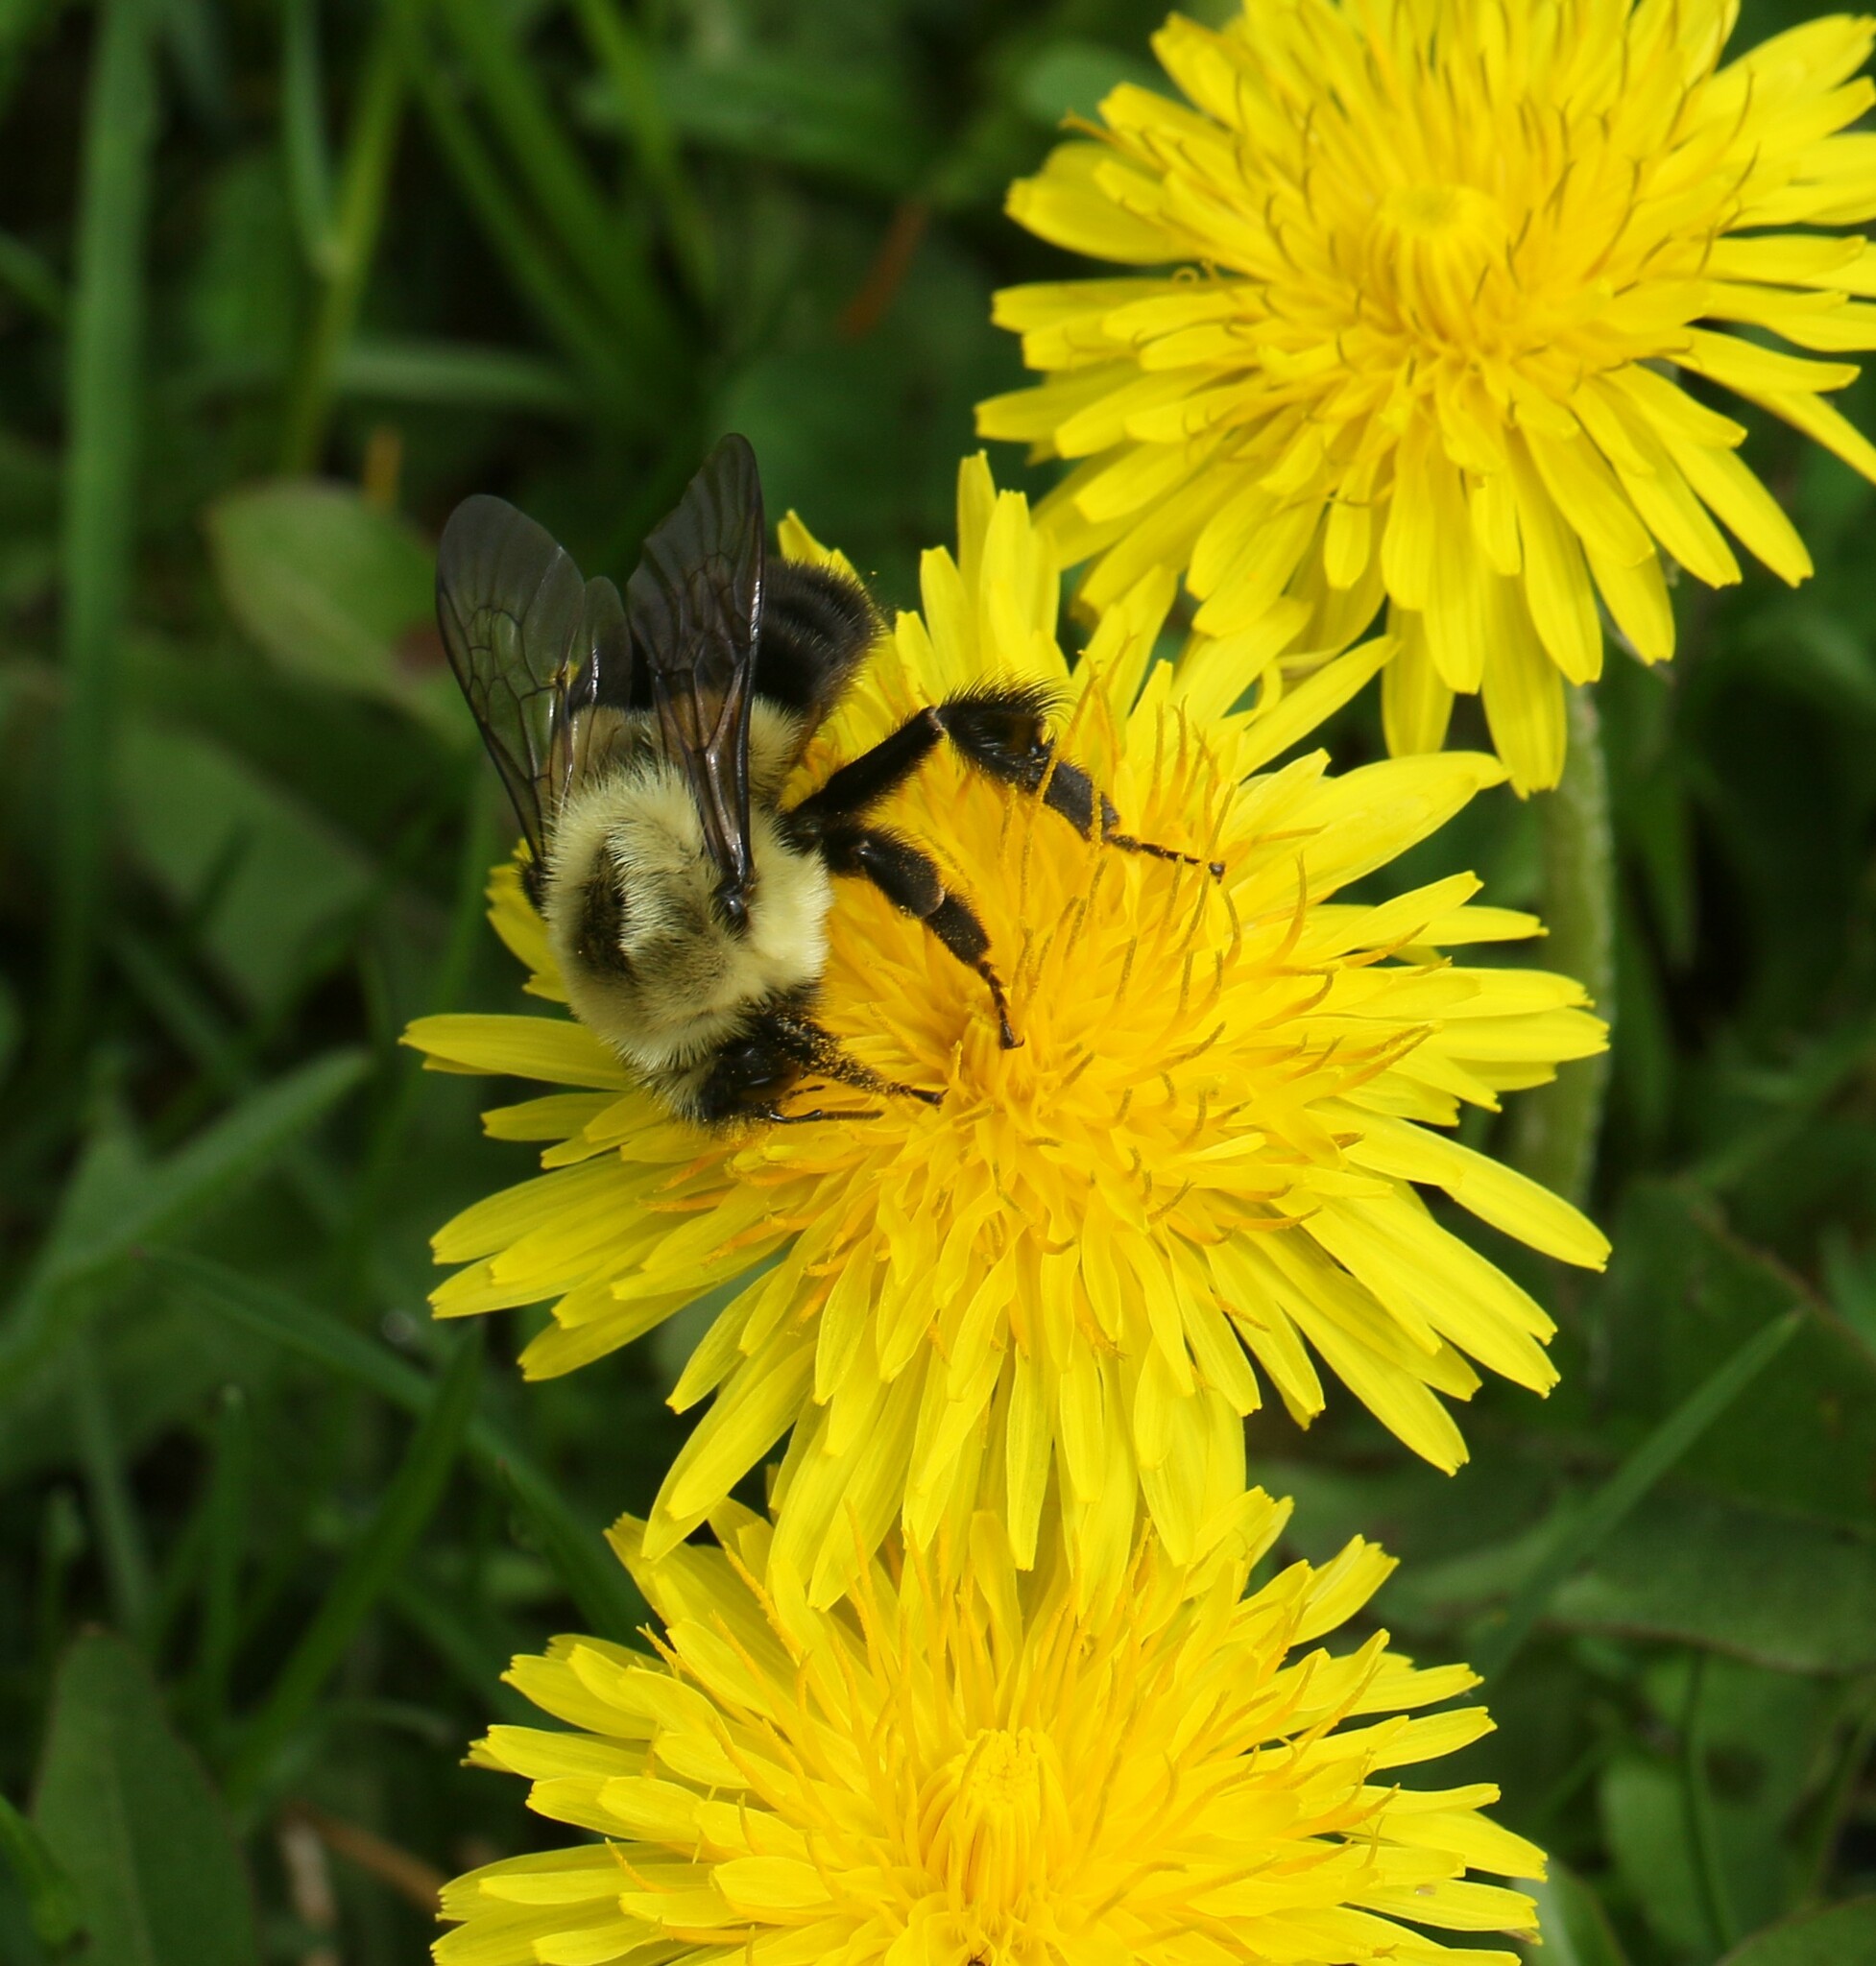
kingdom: Animalia
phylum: Arthropoda
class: Insecta
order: Hymenoptera
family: Apidae
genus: Bombus
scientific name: Bombus impatiens
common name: Common eastern bumble bee
